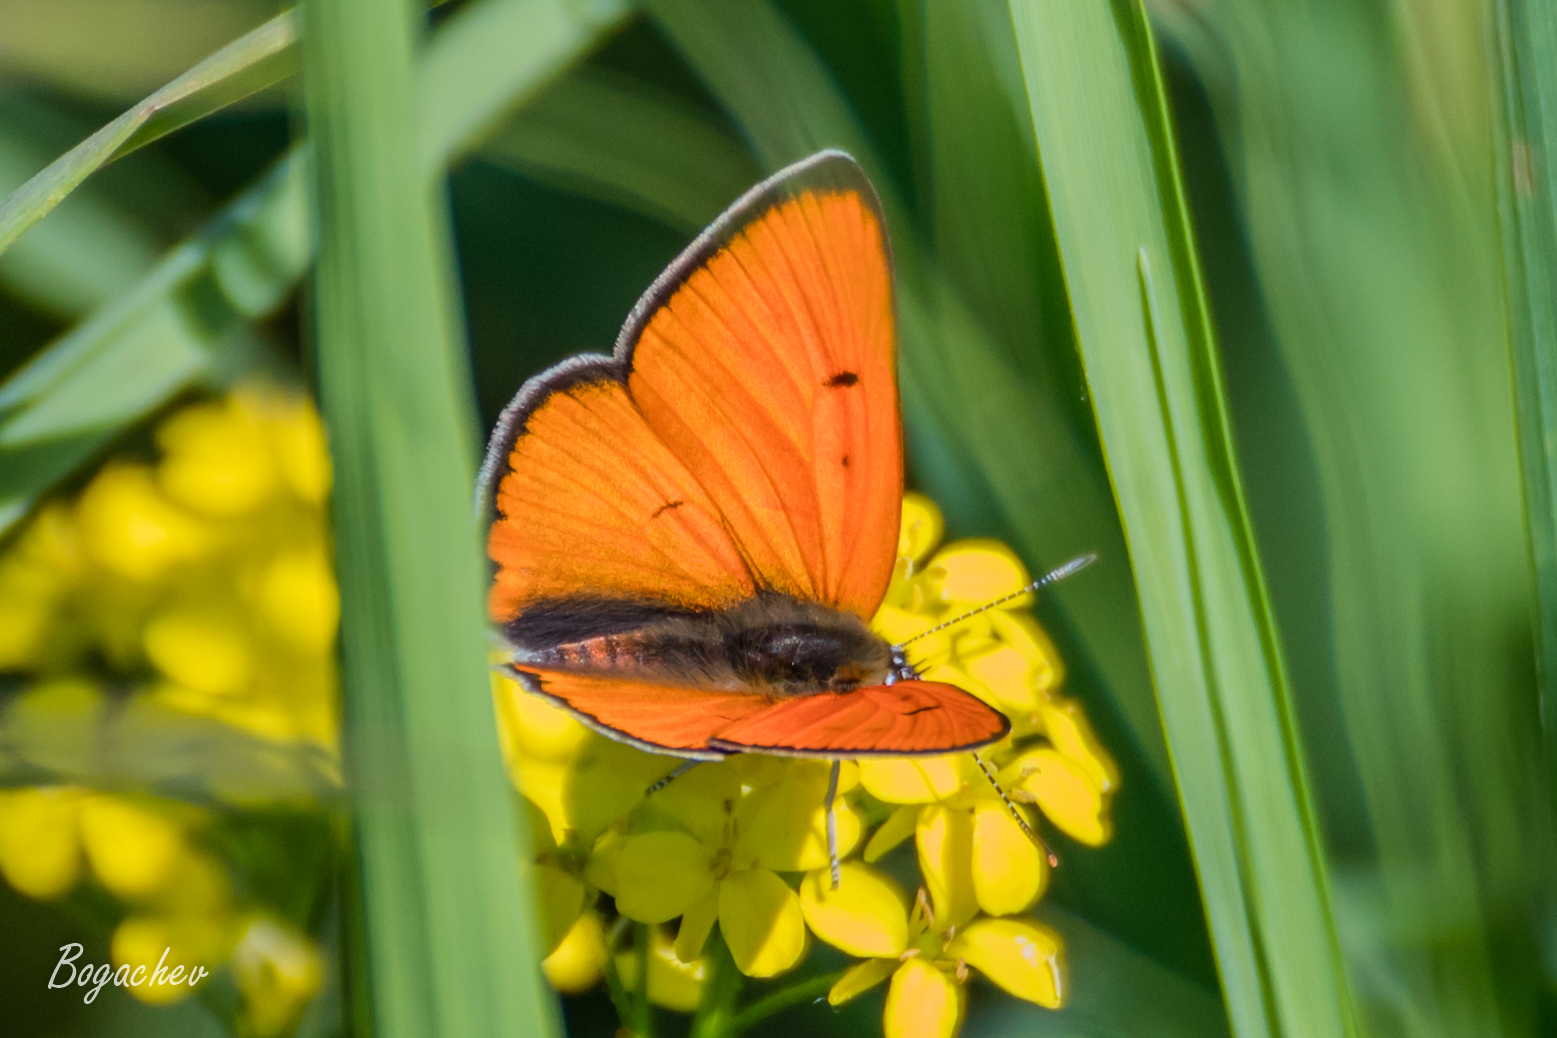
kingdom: Animalia
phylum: Arthropoda
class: Insecta
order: Lepidoptera
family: Lycaenidae
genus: Lycaena
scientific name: Lycaena dispar
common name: Large copper
